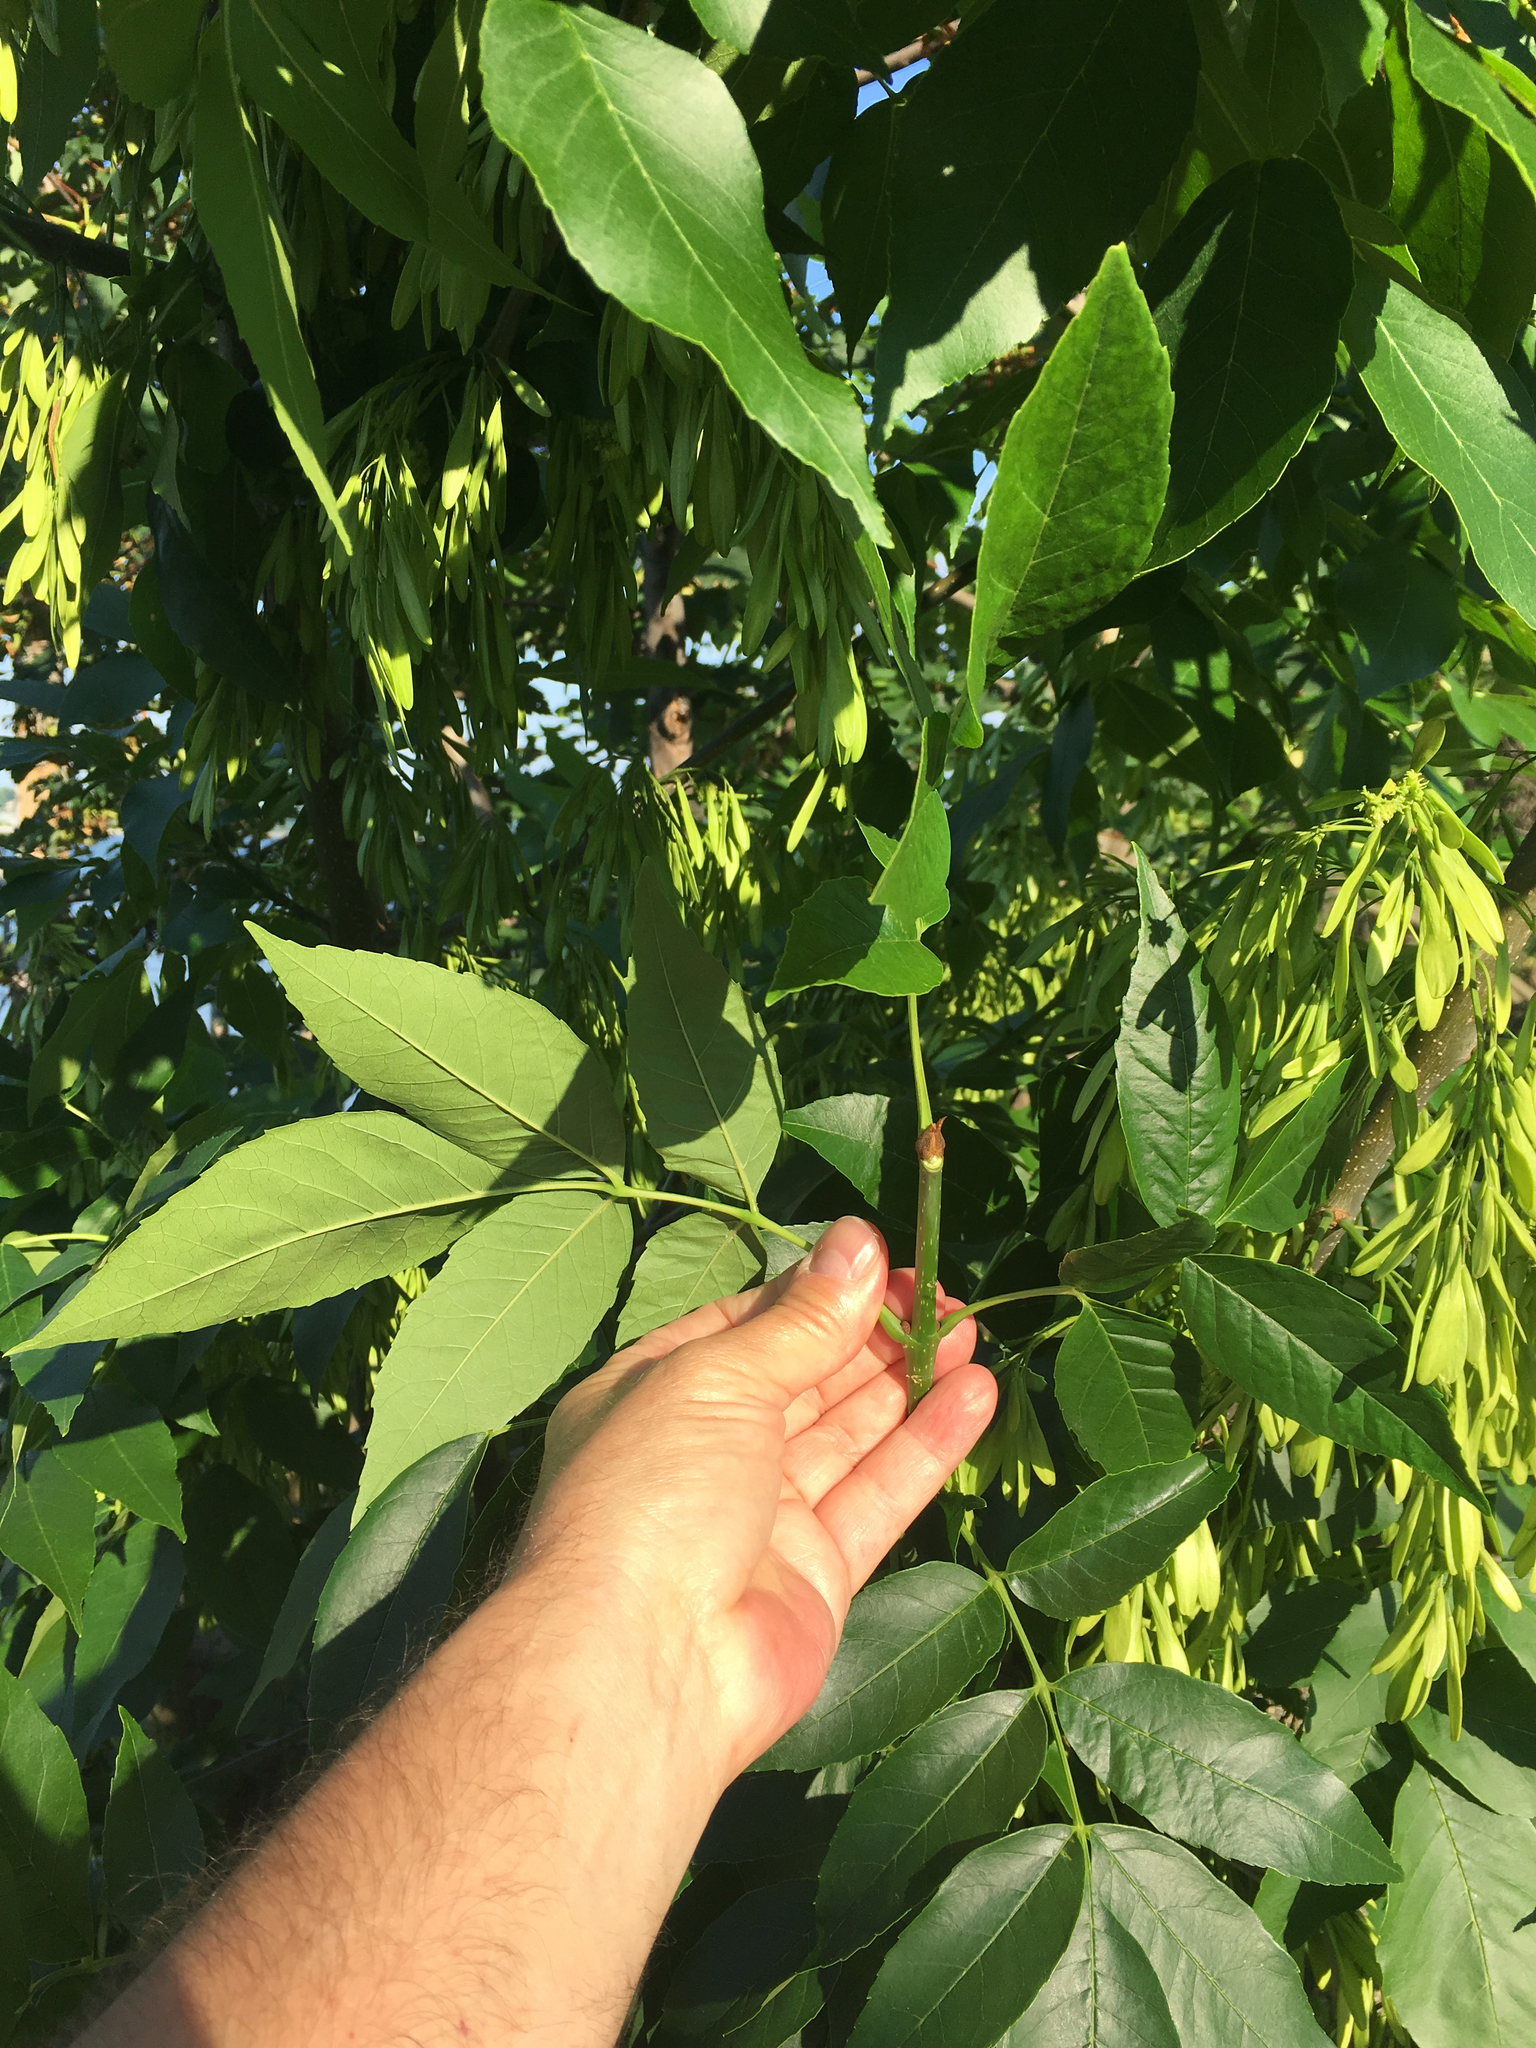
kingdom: Plantae
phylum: Tracheophyta
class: Magnoliopsida
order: Lamiales
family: Oleaceae
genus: Fraxinus
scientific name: Fraxinus pennsylvanica
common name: Green ash
